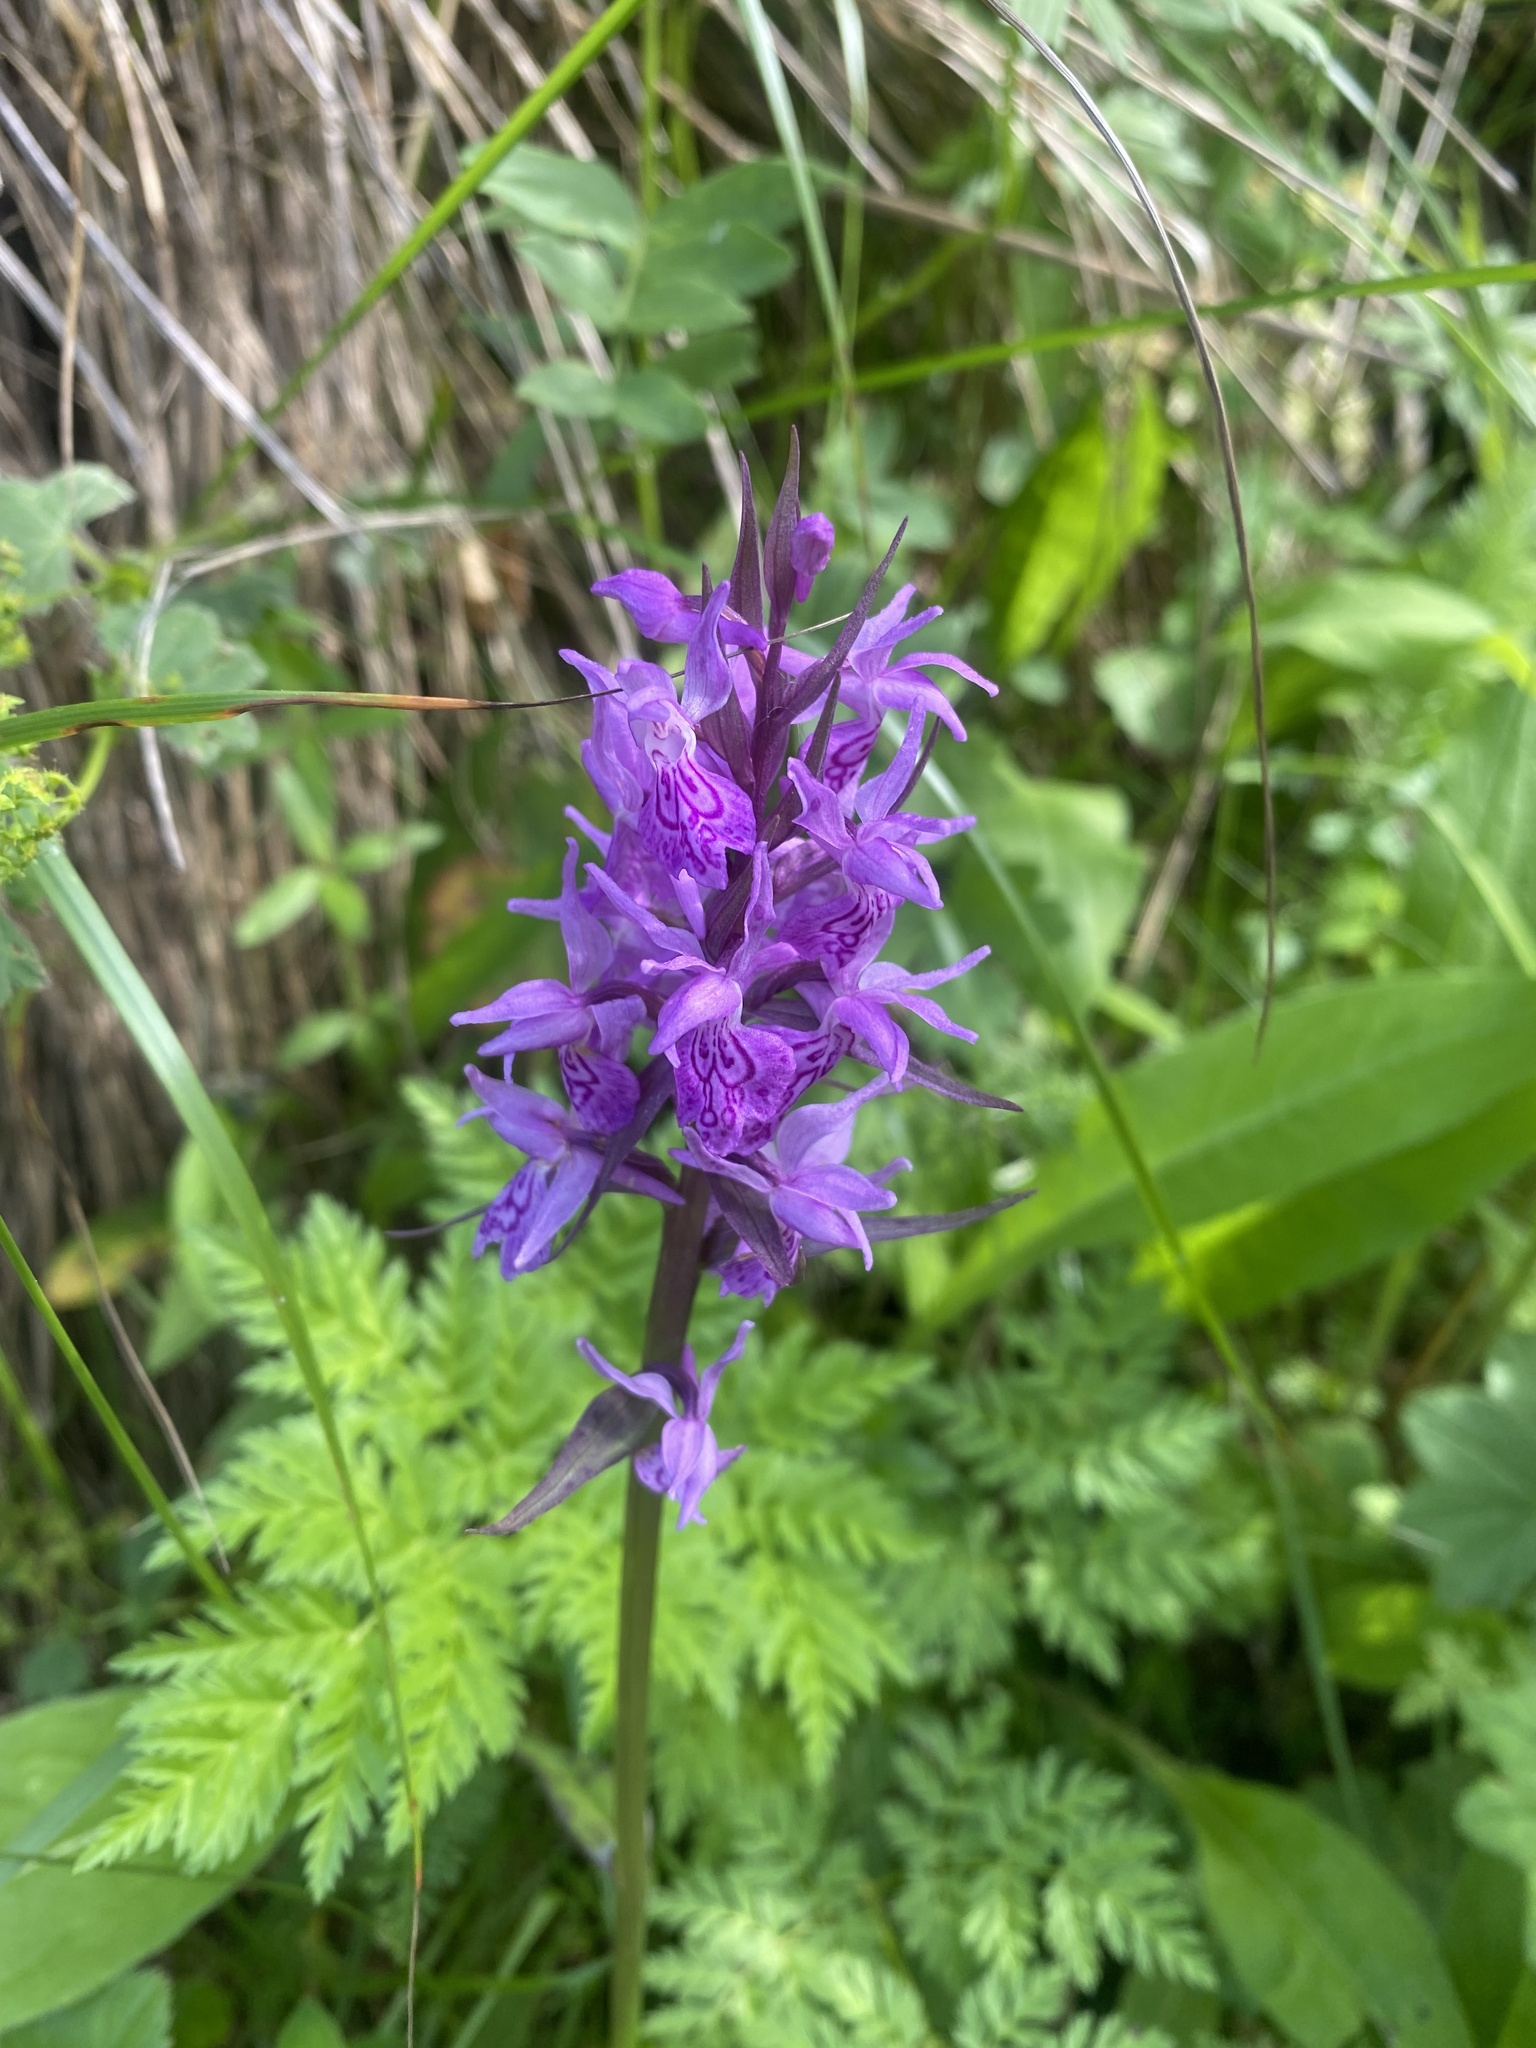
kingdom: Plantae
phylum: Tracheophyta
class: Liliopsida
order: Asparagales
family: Orchidaceae
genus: Dactylorhiza
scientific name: Dactylorhiza urvilleana
